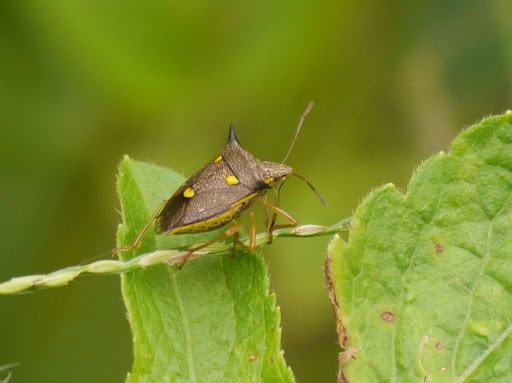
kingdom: Animalia
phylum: Arthropoda
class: Insecta
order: Hemiptera
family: Pentatomidae
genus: Aspavia
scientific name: Aspavia armigera
